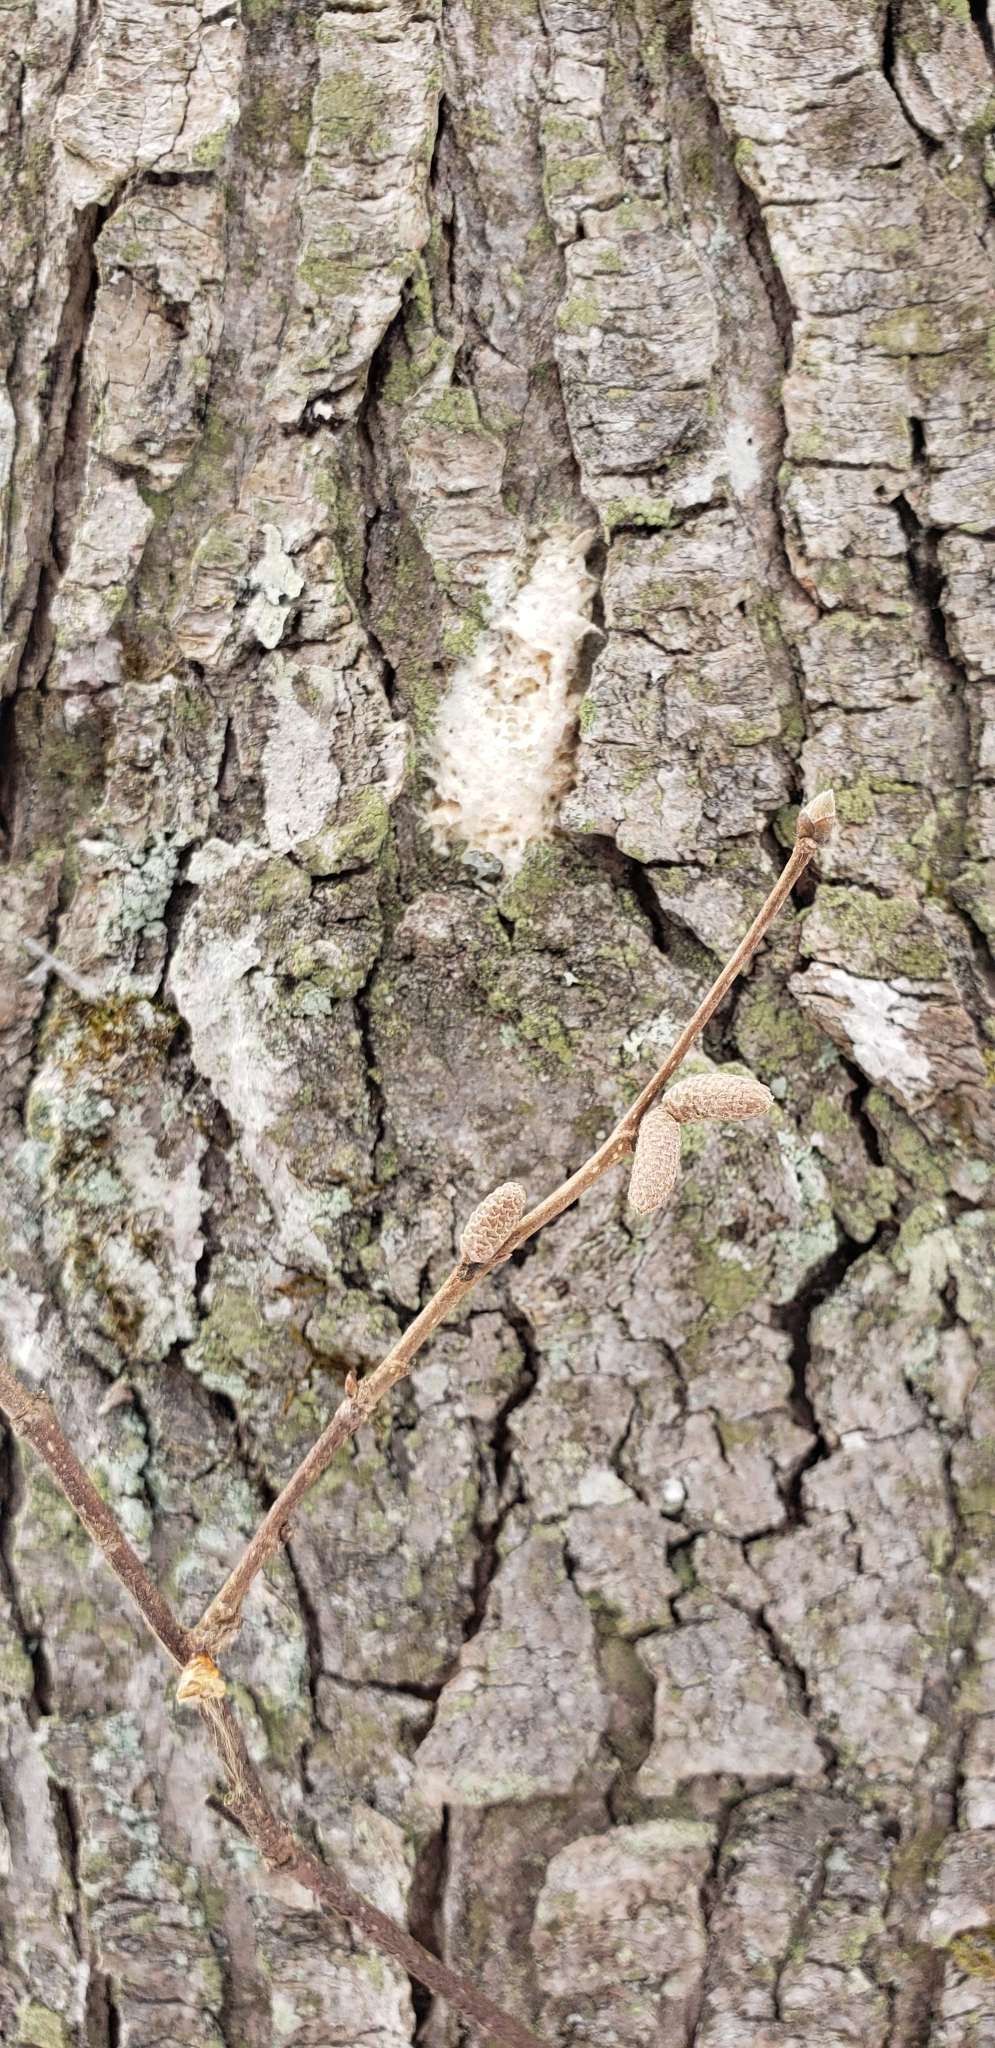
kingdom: Plantae
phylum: Tracheophyta
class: Magnoliopsida
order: Fagales
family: Betulaceae
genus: Corylus
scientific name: Corylus cornuta
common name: Beaked hazel
